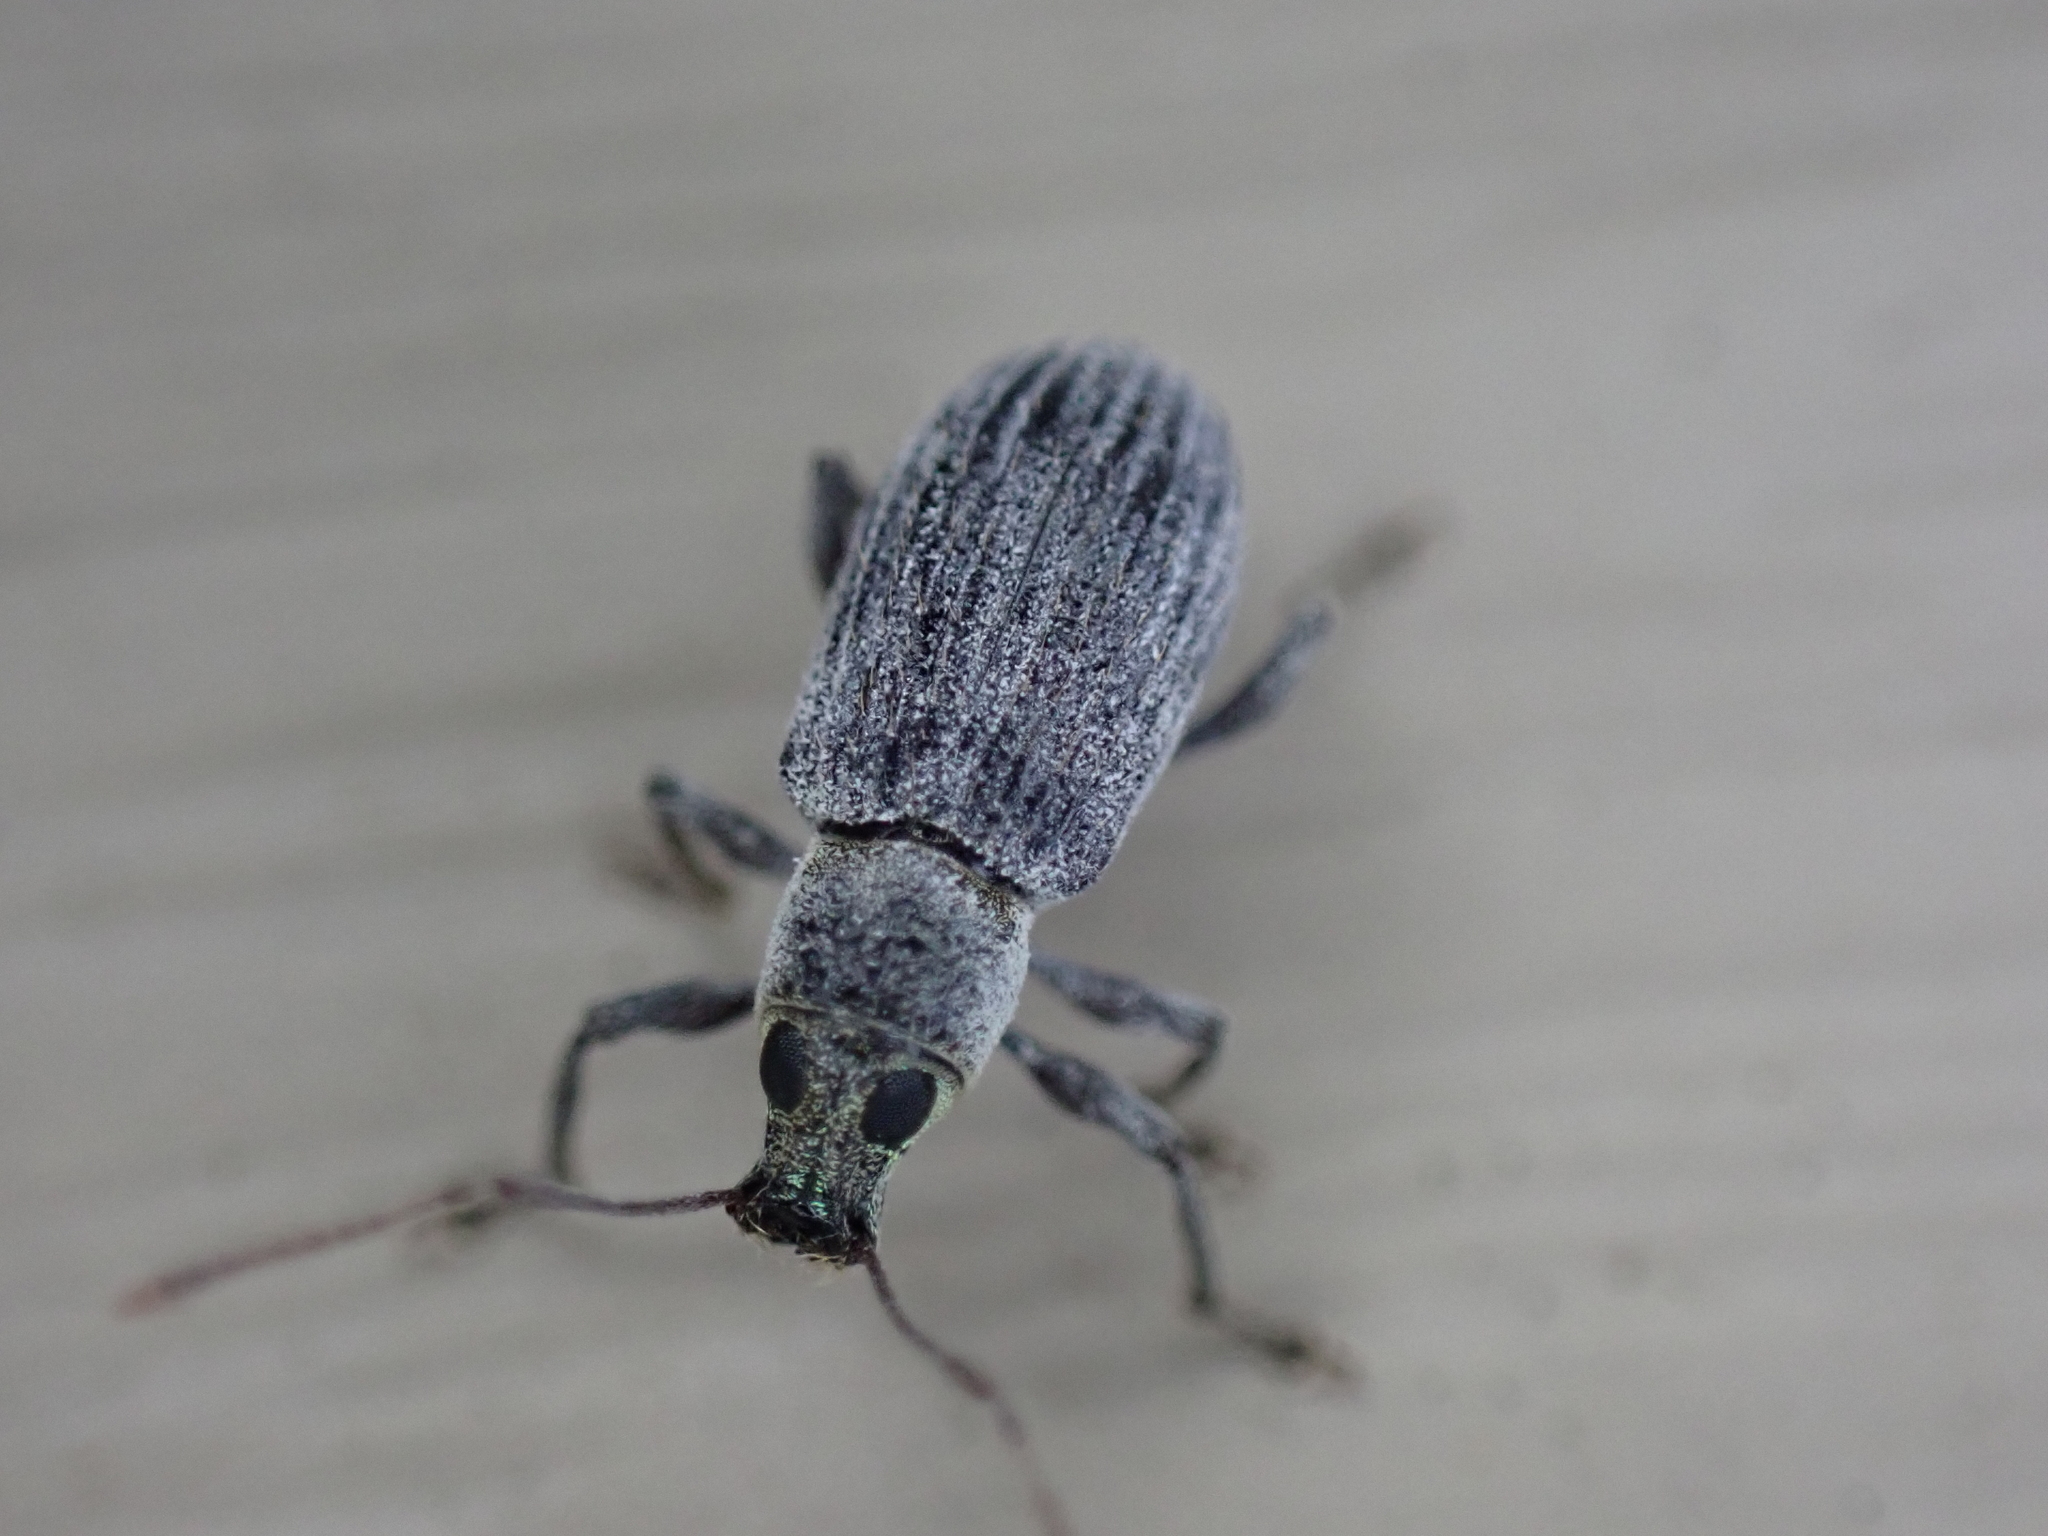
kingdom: Animalia
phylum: Arthropoda
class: Insecta
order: Coleoptera
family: Curculionidae
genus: Cyrtepistomus
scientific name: Cyrtepistomus castaneus
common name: Weevil
